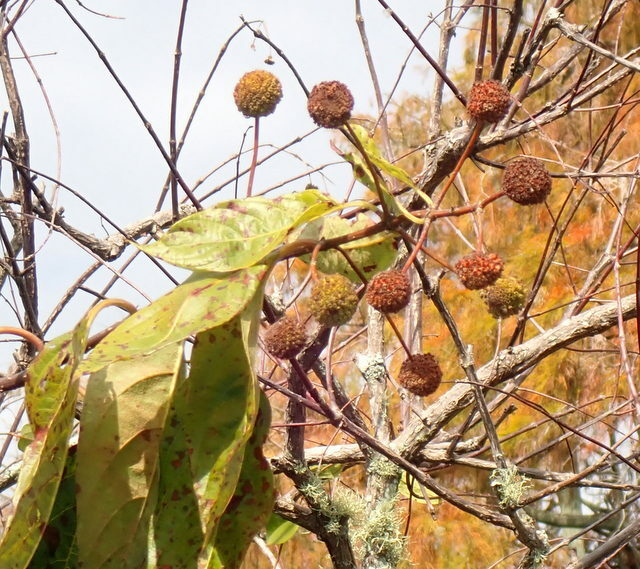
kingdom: Plantae
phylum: Tracheophyta
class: Magnoliopsida
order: Gentianales
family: Rubiaceae
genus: Cephalanthus
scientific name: Cephalanthus occidentalis
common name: Button-willow
